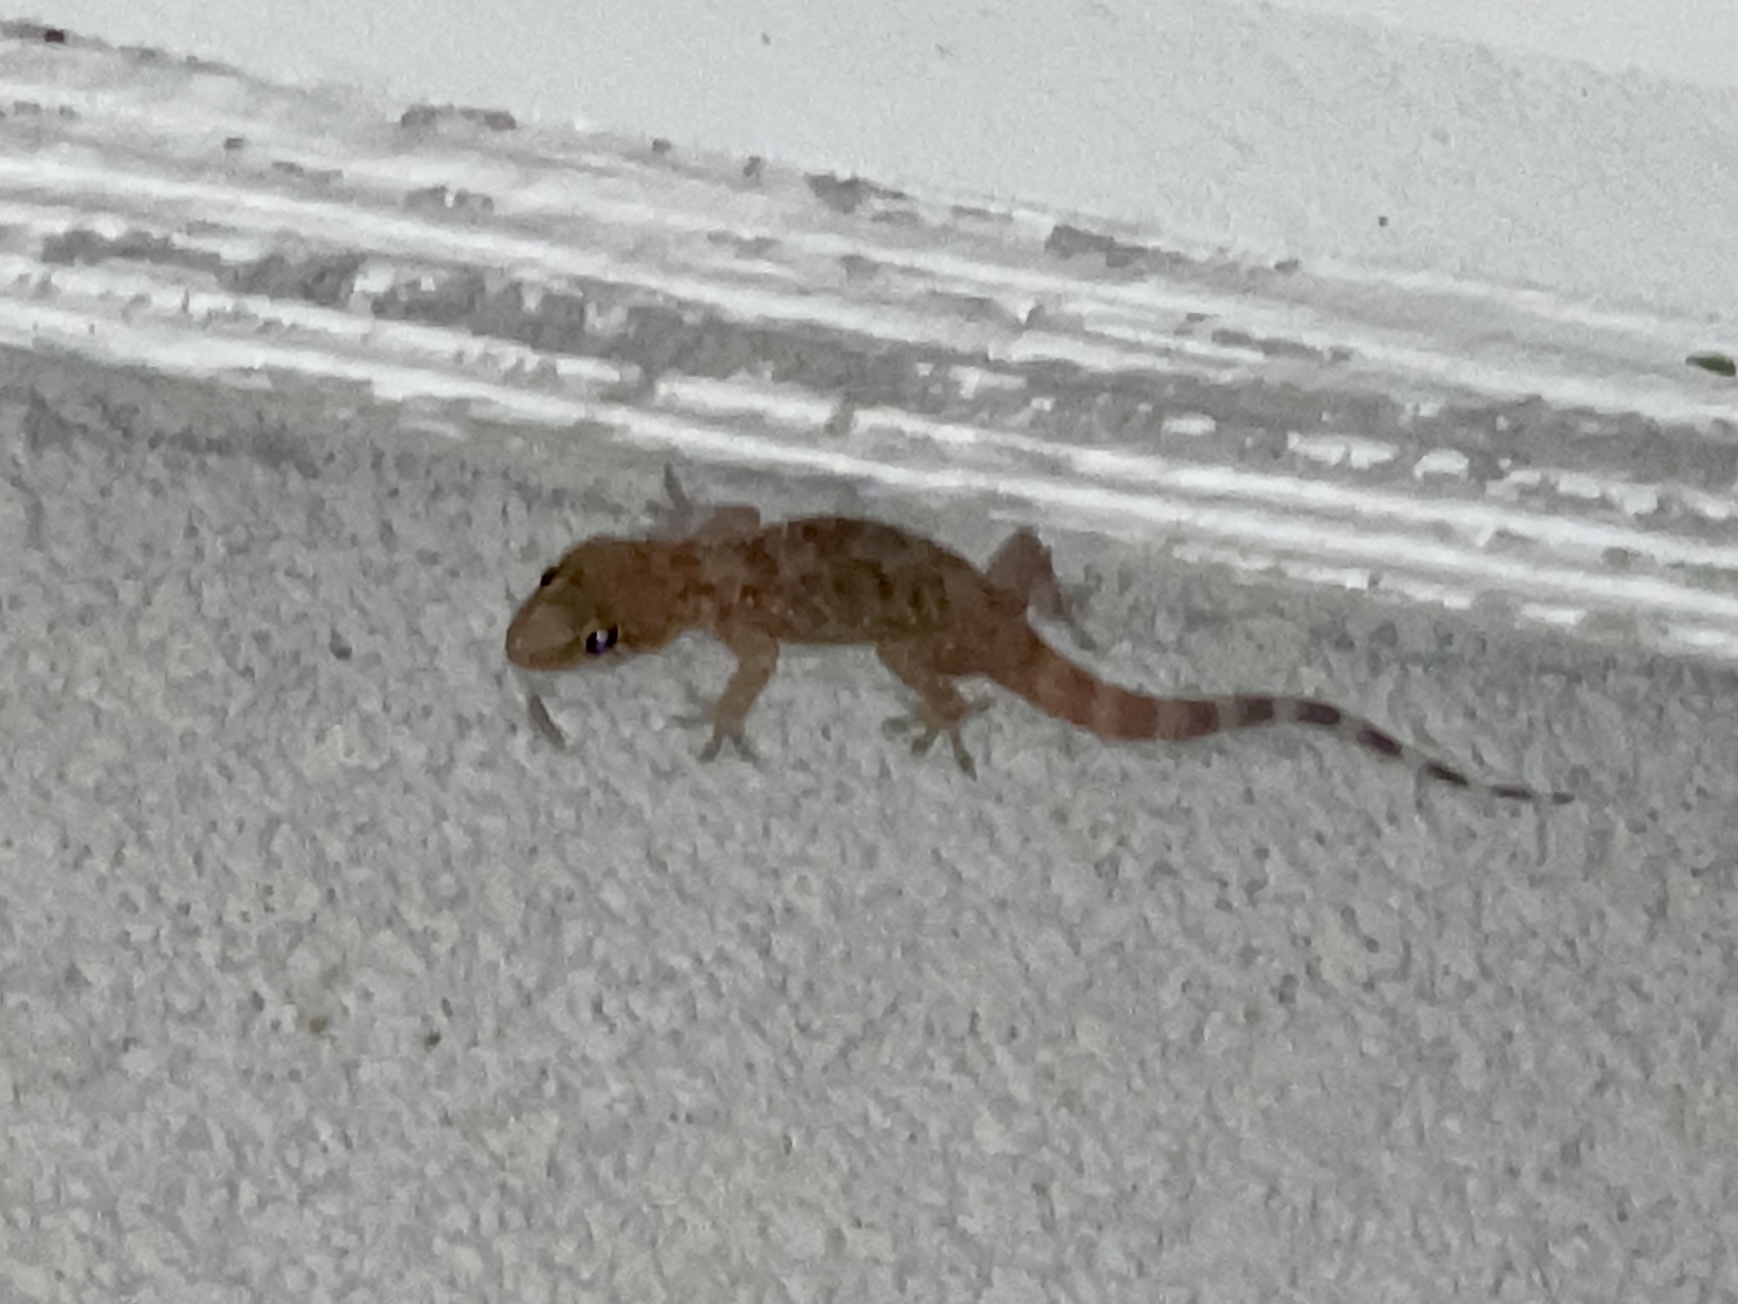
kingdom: Animalia
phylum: Chordata
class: Squamata
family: Gekkonidae
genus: Hemidactylus
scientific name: Hemidactylus turcicus
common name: Turkish gecko
